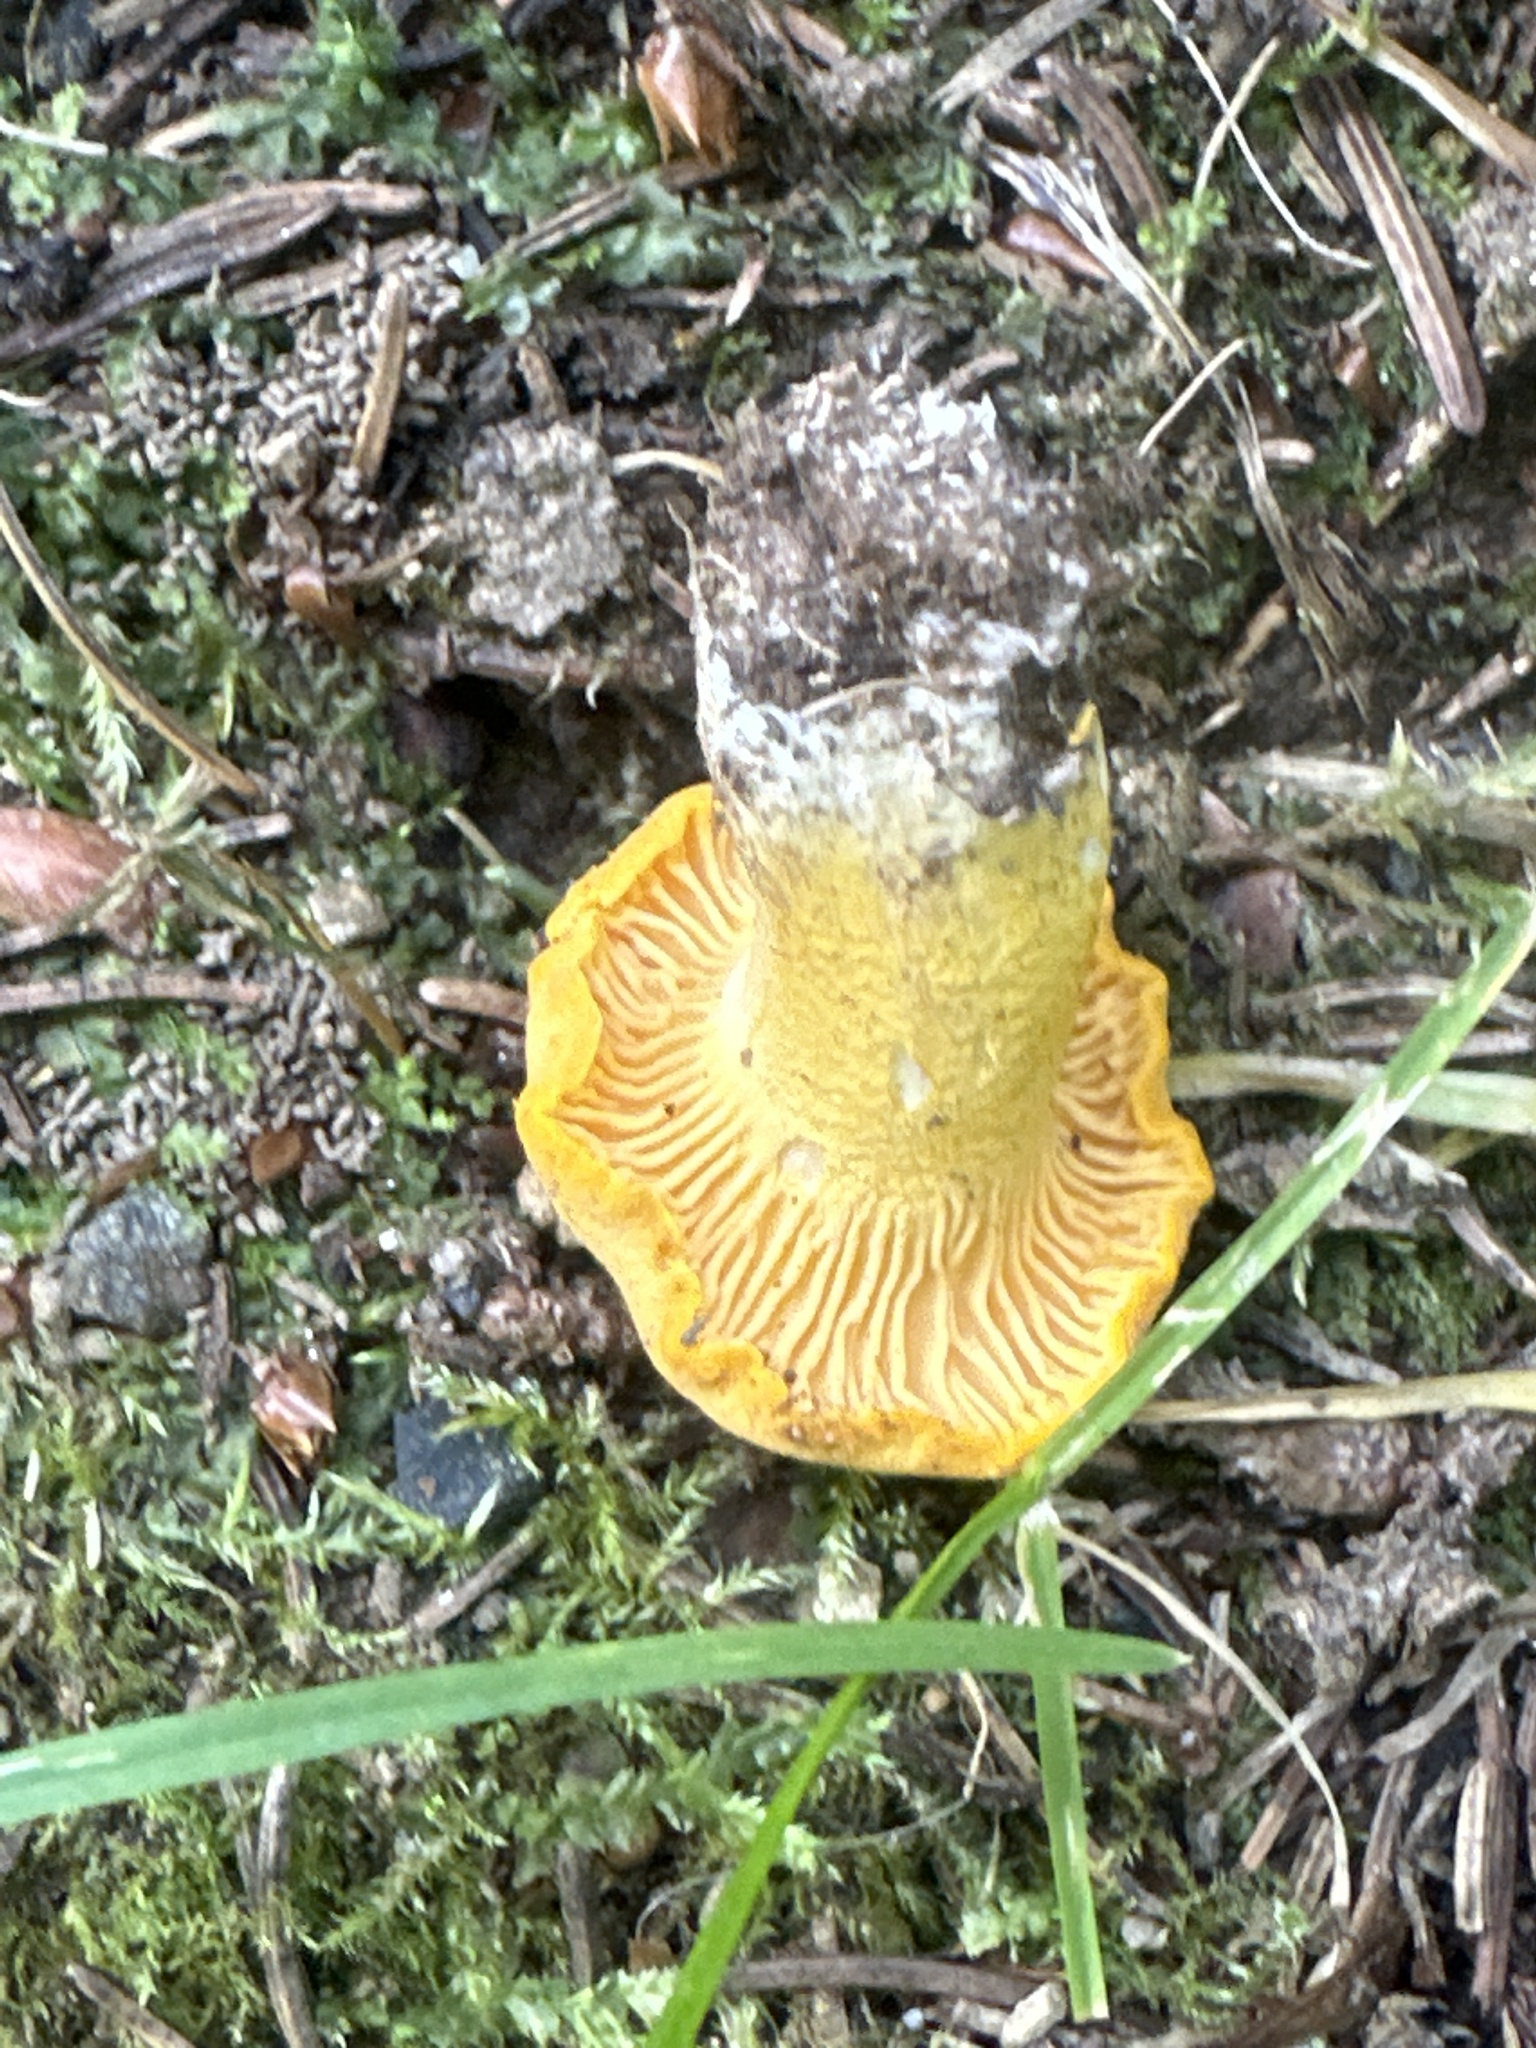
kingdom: Fungi
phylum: Basidiomycota
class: Agaricomycetes
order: Cantharellales
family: Hydnaceae
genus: Cantharellus
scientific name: Cantharellus cibarius
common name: Chanterelle
